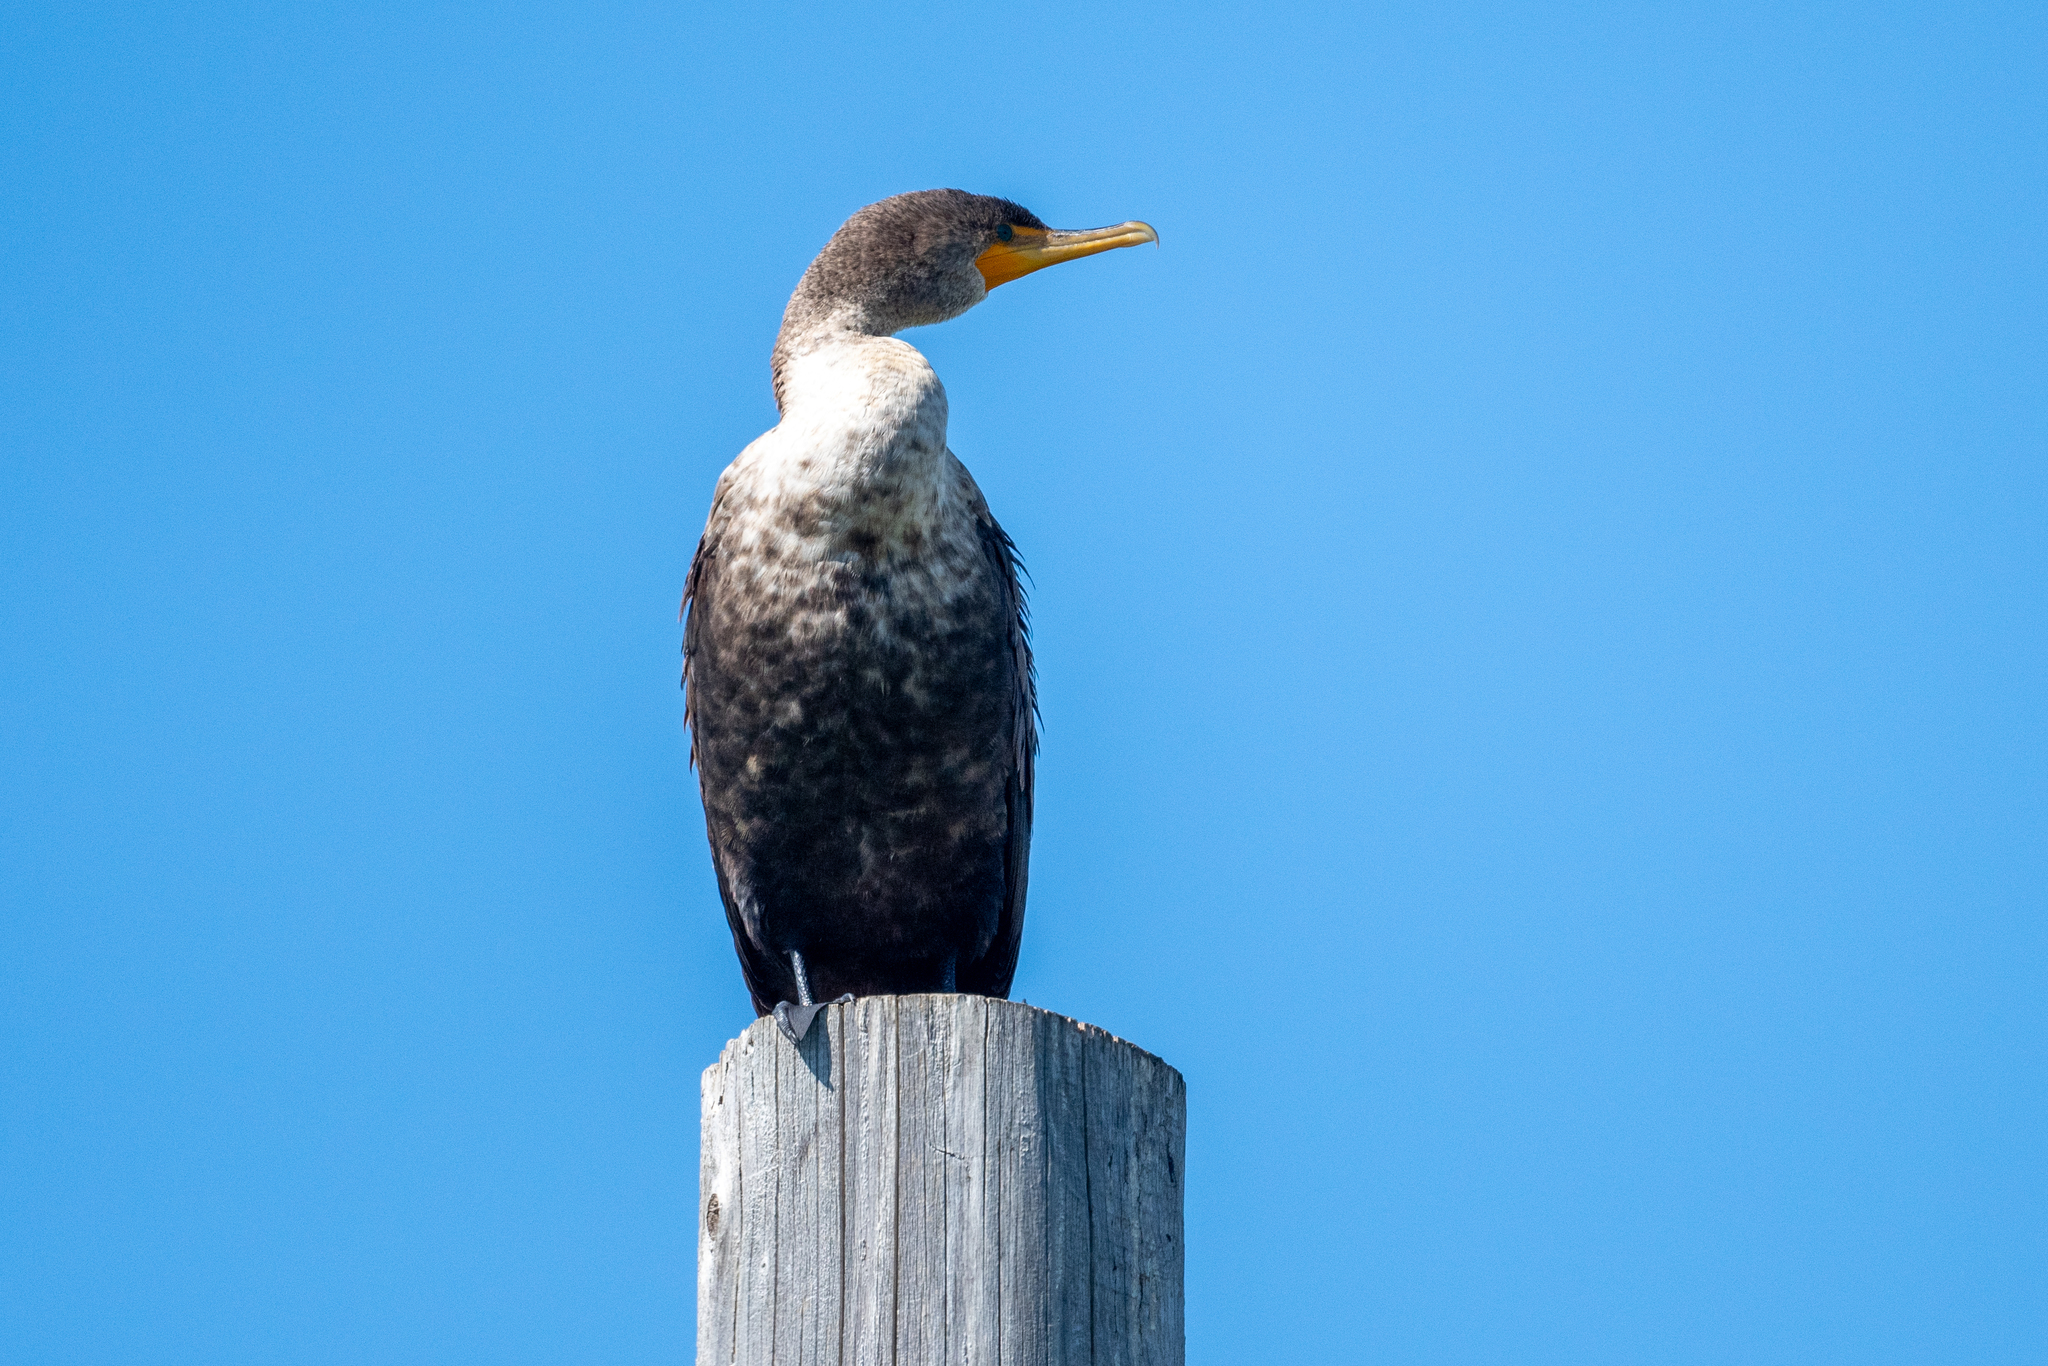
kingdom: Animalia
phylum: Chordata
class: Aves
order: Suliformes
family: Phalacrocoracidae
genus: Phalacrocorax
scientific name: Phalacrocorax auritus
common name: Double-crested cormorant
